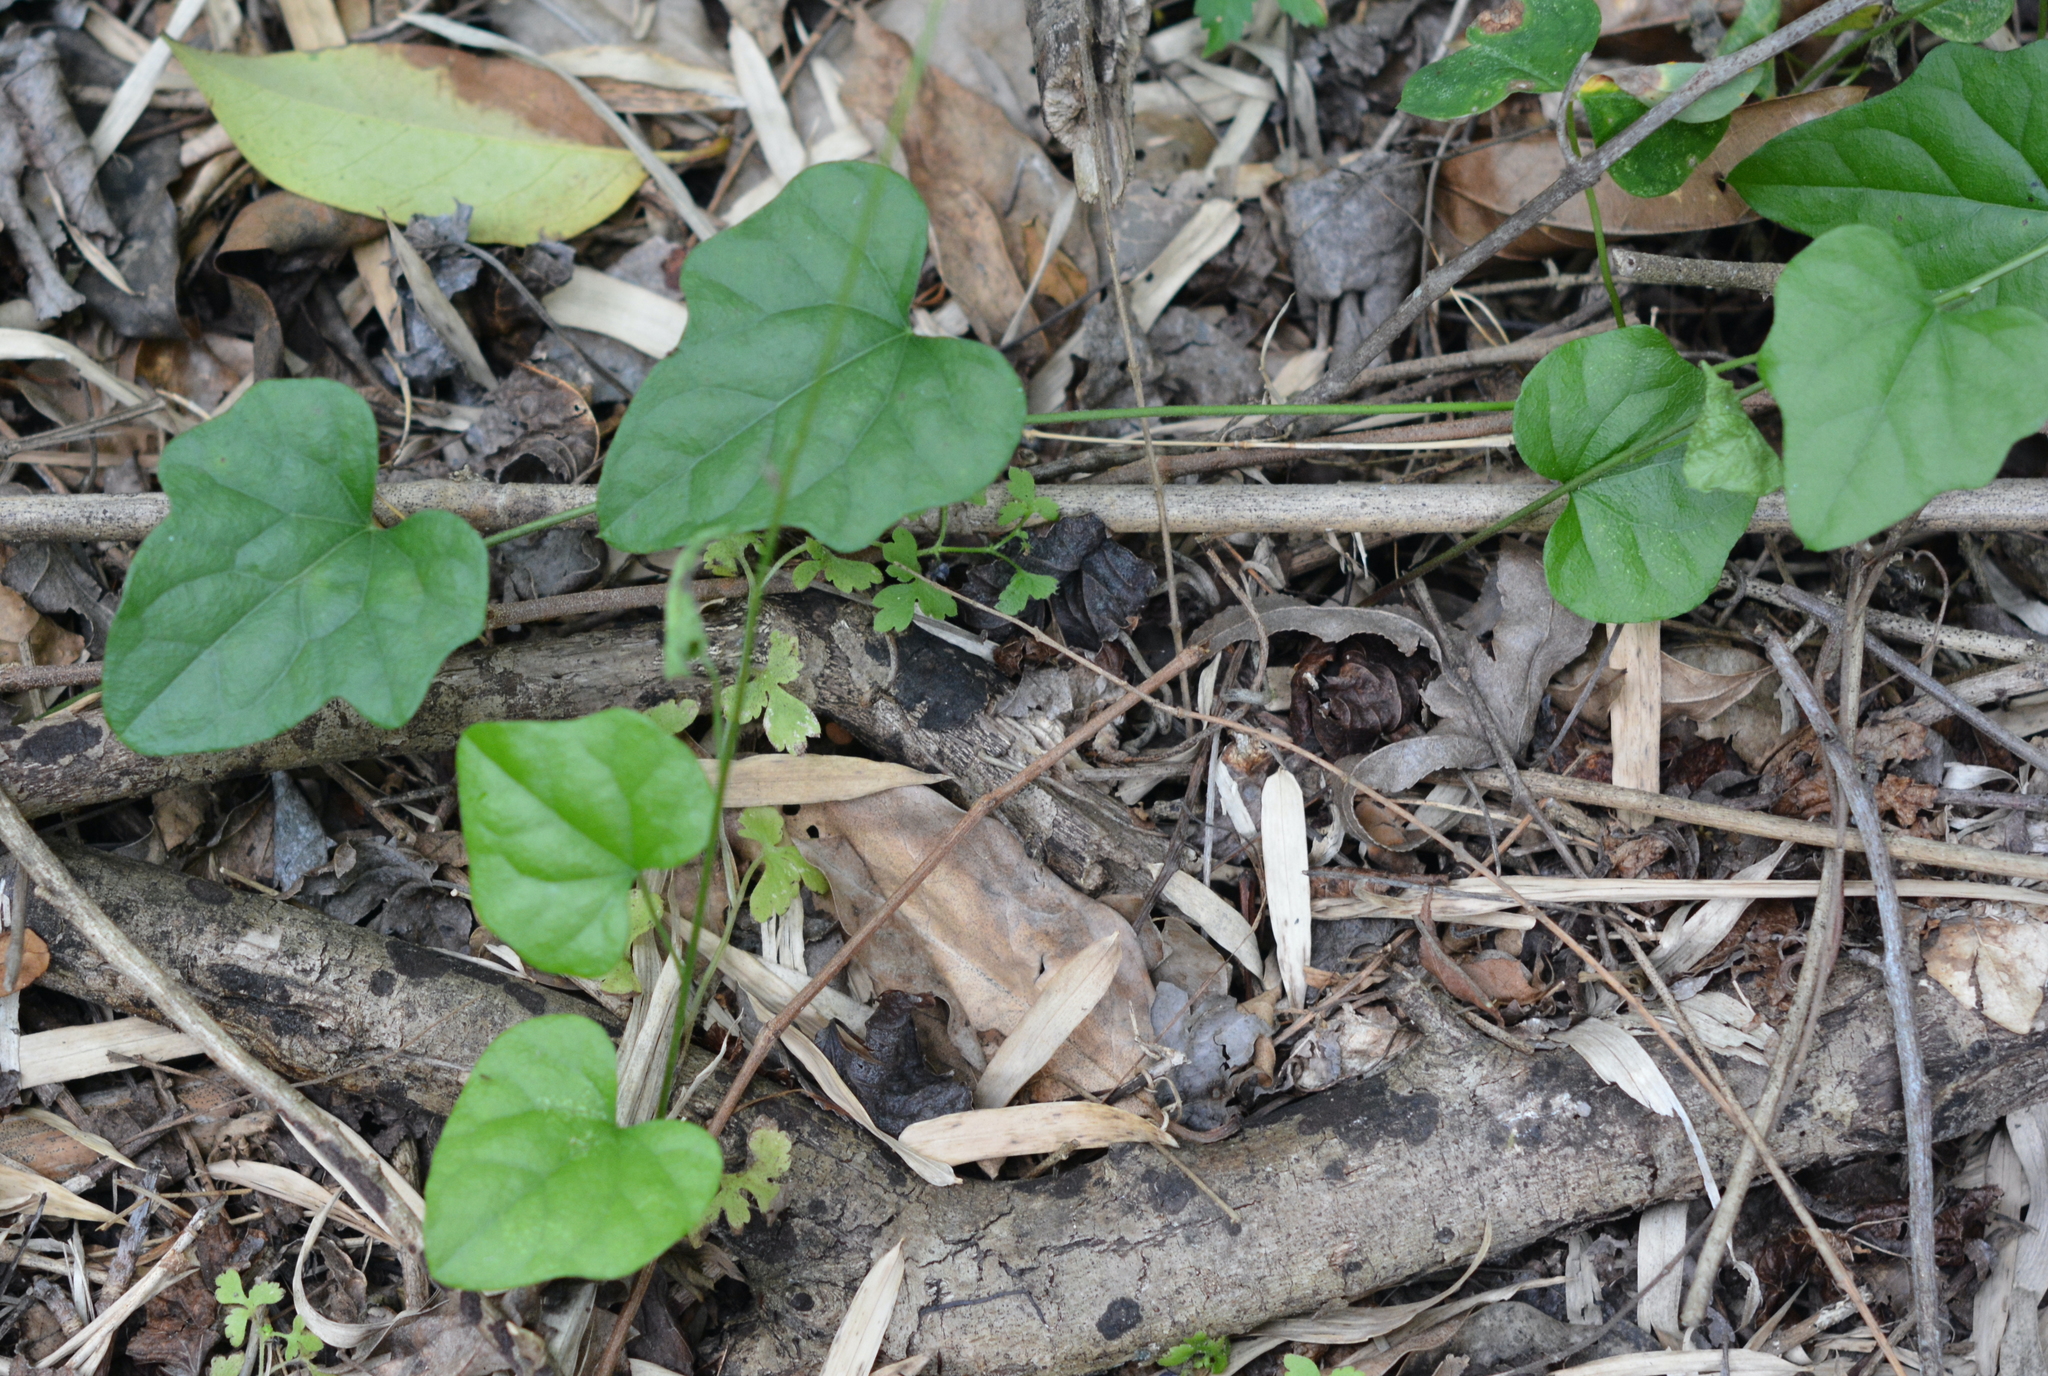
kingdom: Plantae
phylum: Tracheophyta
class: Magnoliopsida
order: Ranunculales
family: Menispermaceae
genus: Cocculus
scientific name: Cocculus carolinus
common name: Carolina moonseed
